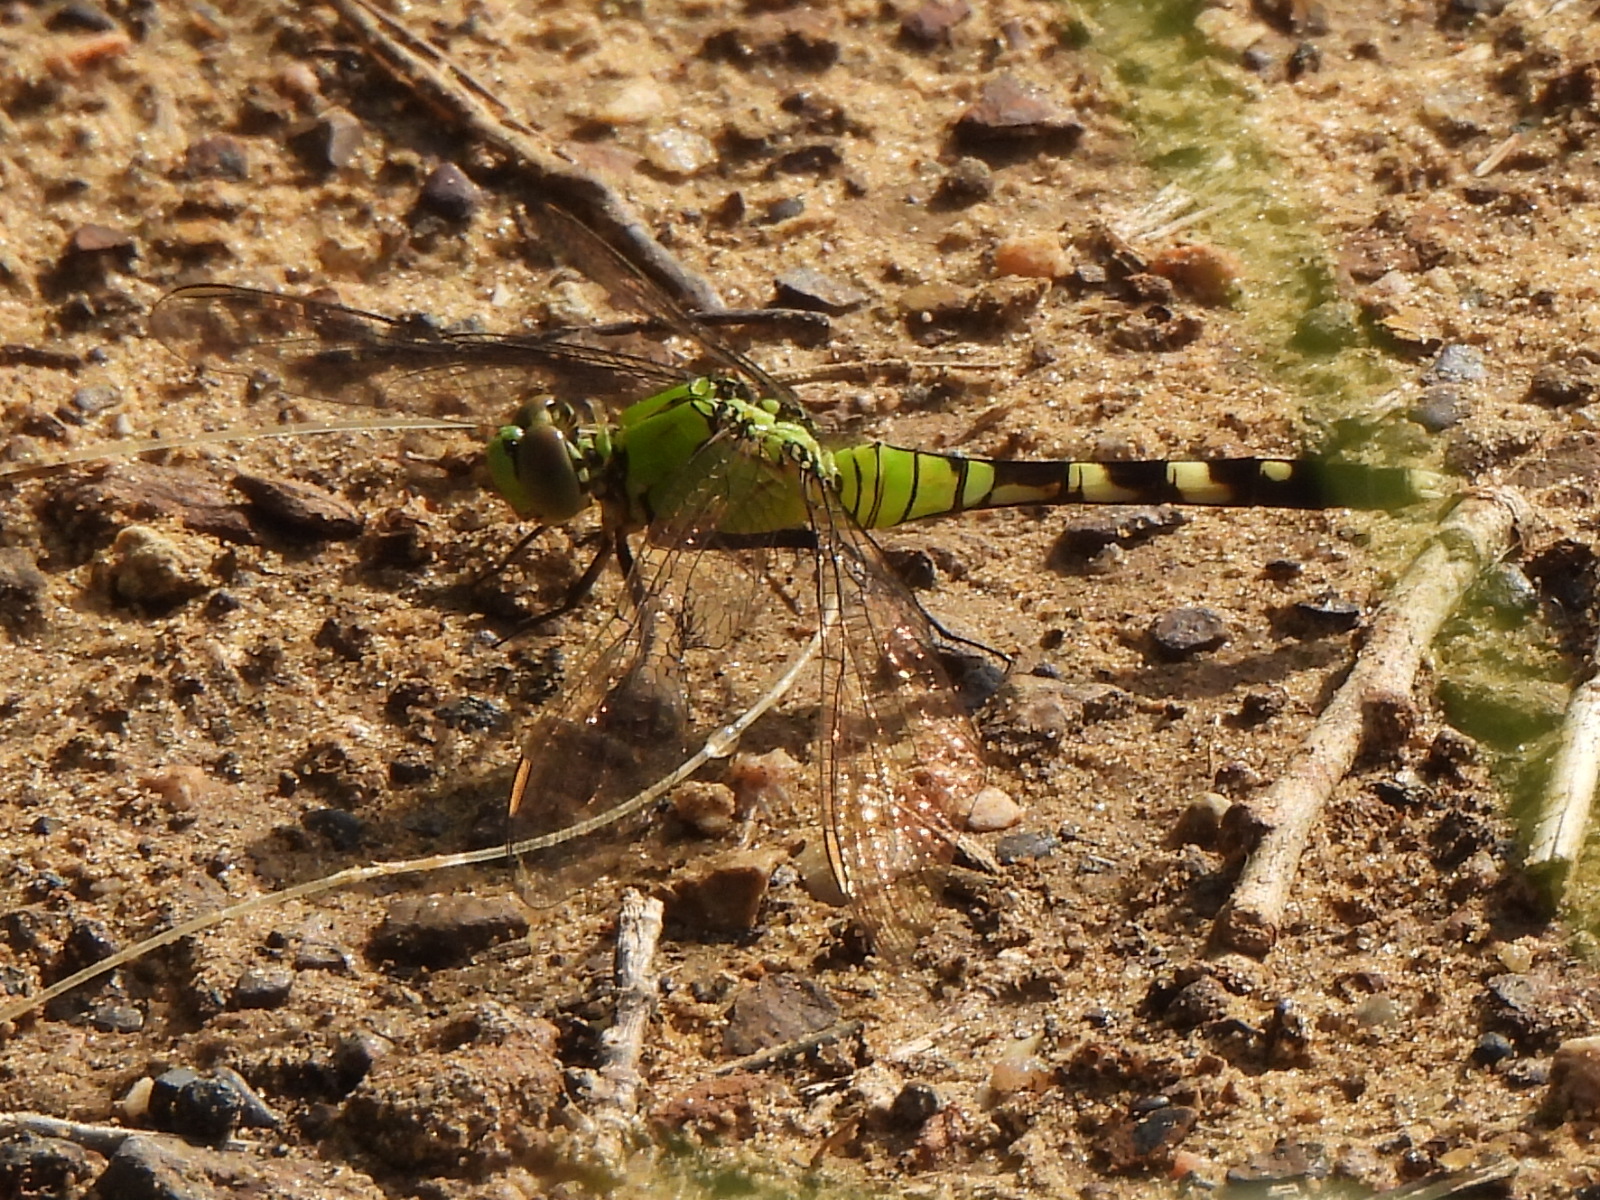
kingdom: Animalia
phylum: Arthropoda
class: Insecta
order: Odonata
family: Libellulidae
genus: Erythemis
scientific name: Erythemis simplicicollis
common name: Eastern pondhawk
